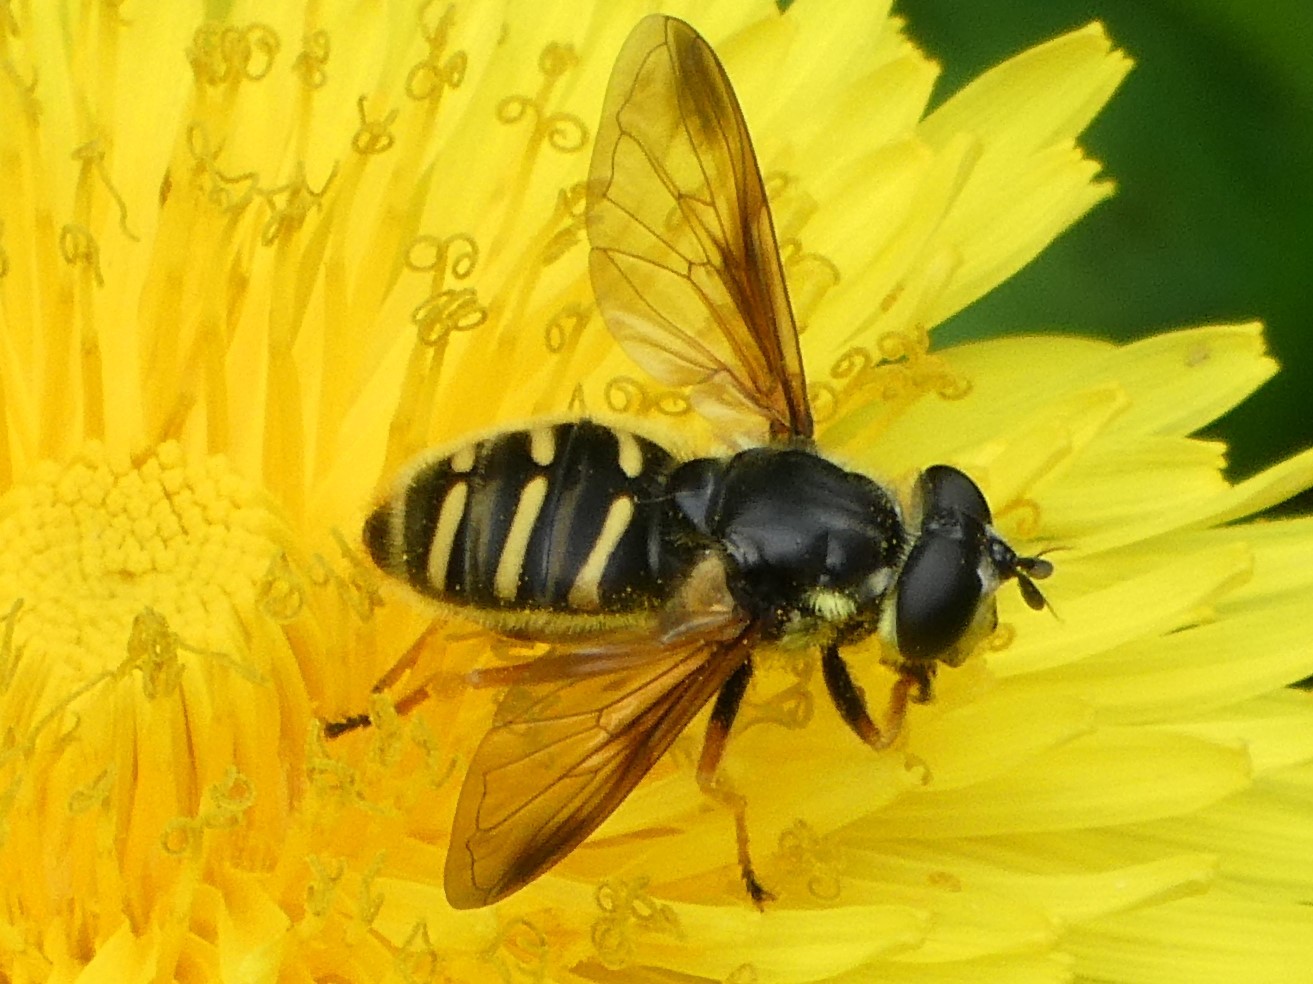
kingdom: Animalia
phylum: Arthropoda
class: Insecta
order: Diptera
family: Syrphidae
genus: Sericomyia
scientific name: Sericomyia chrysotoxoides
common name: Oblique-banded pond fly
